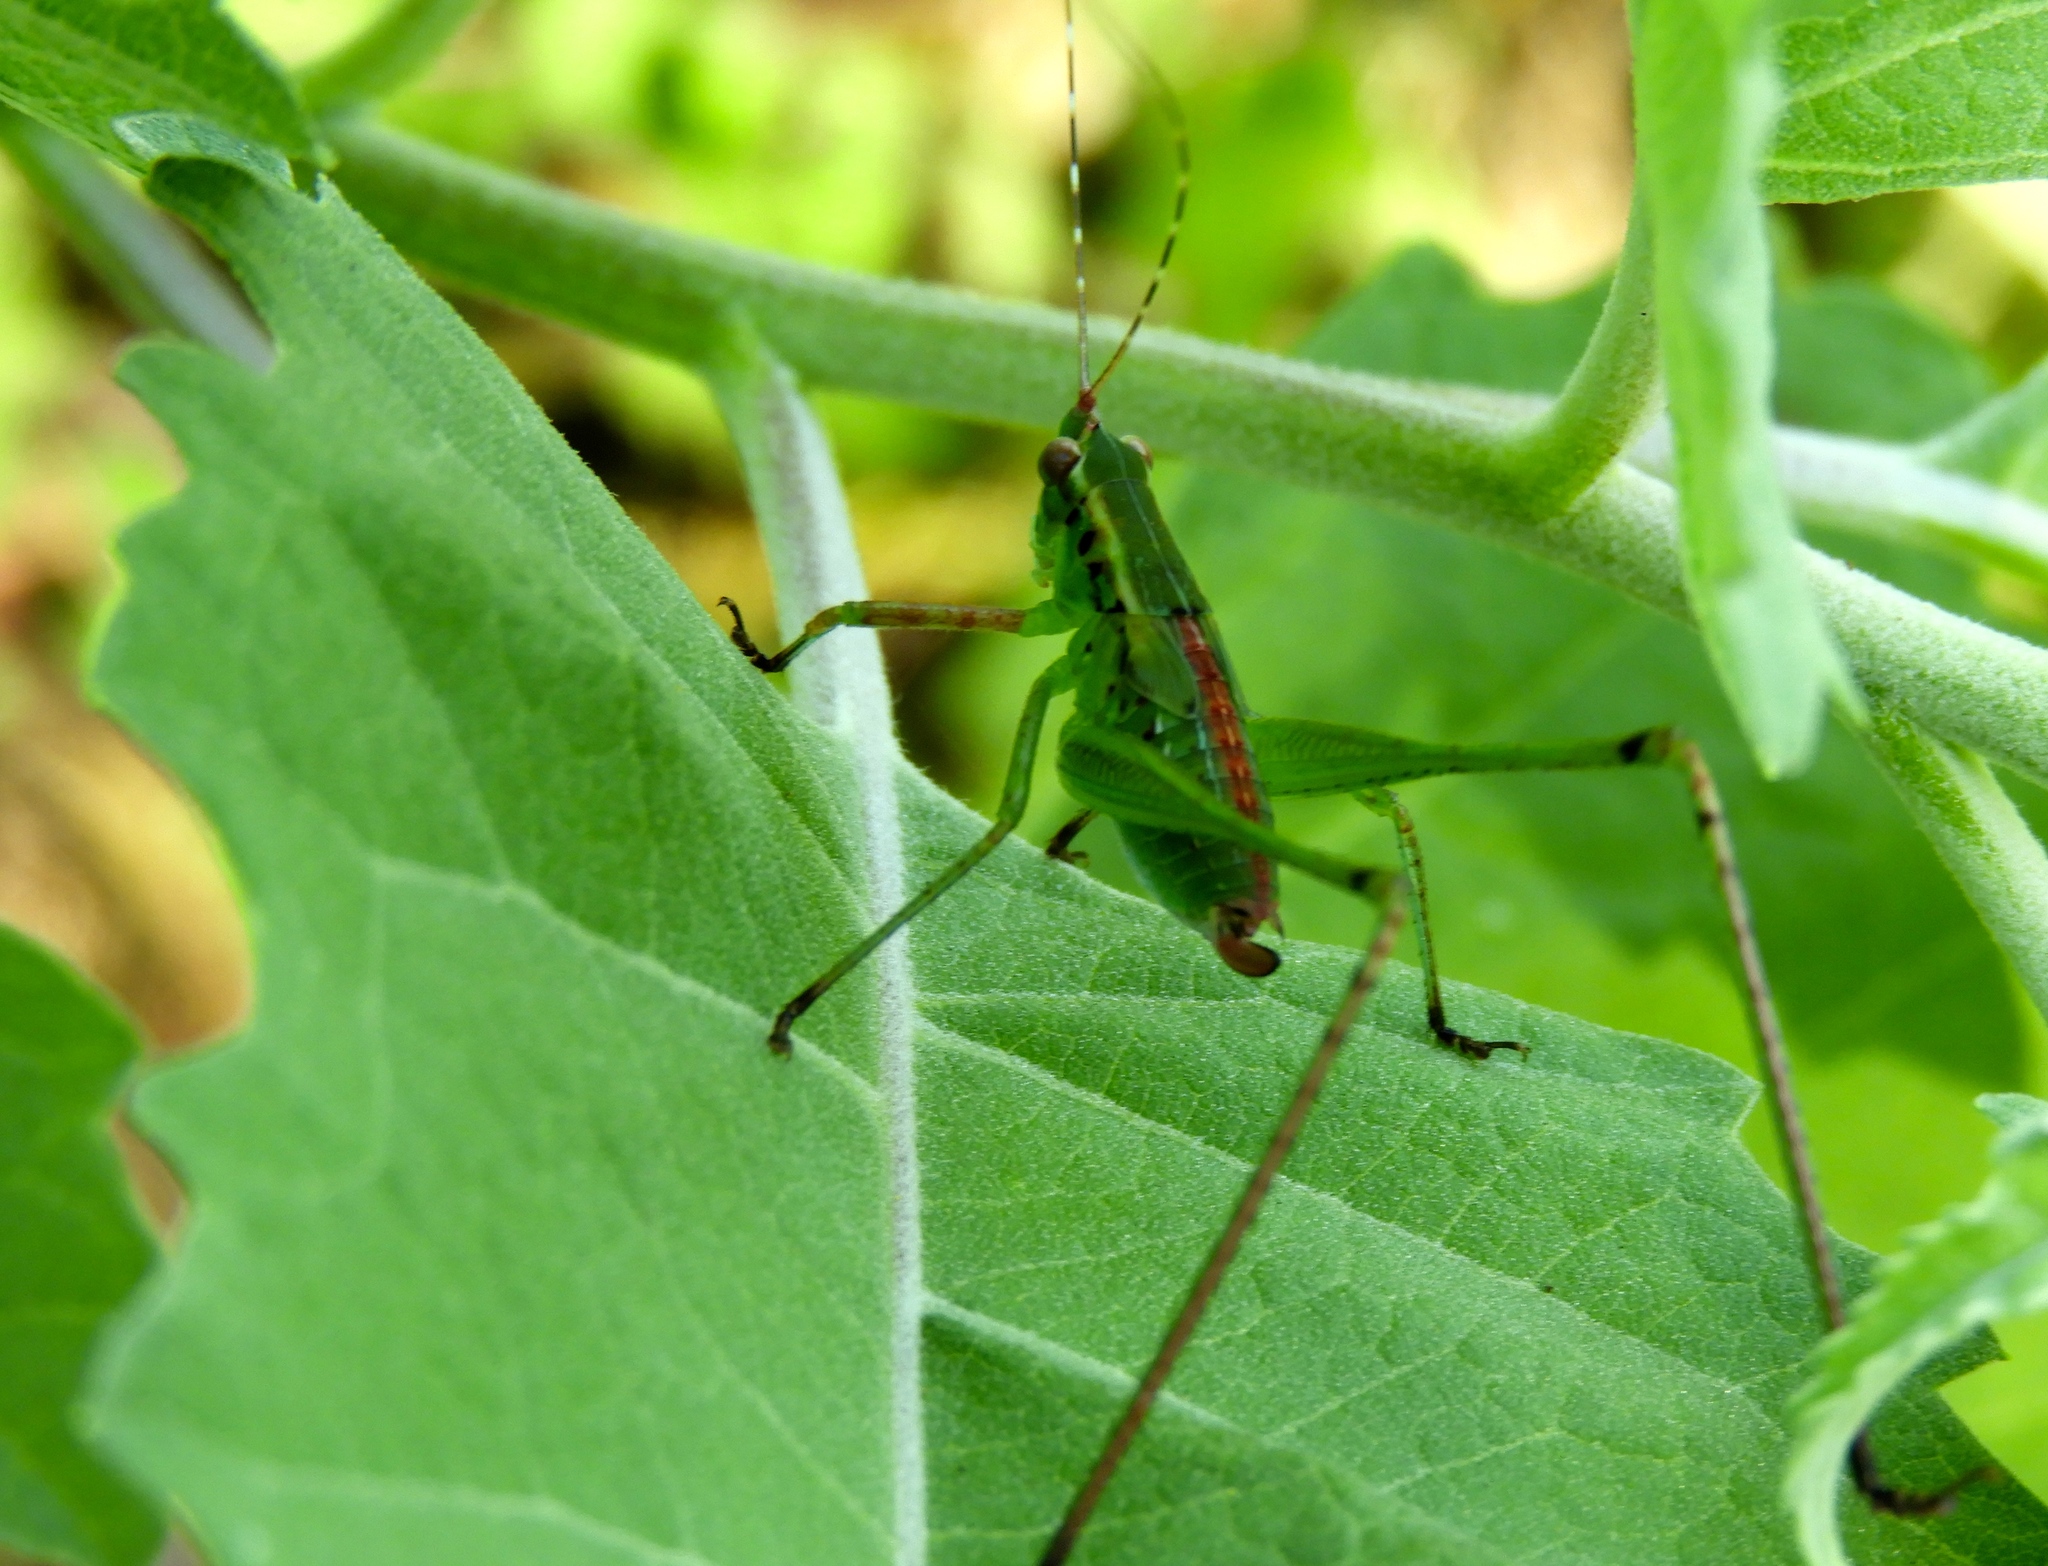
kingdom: Animalia
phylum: Arthropoda
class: Insecta
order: Orthoptera
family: Tettigoniidae
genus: Scudderia
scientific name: Scudderia
